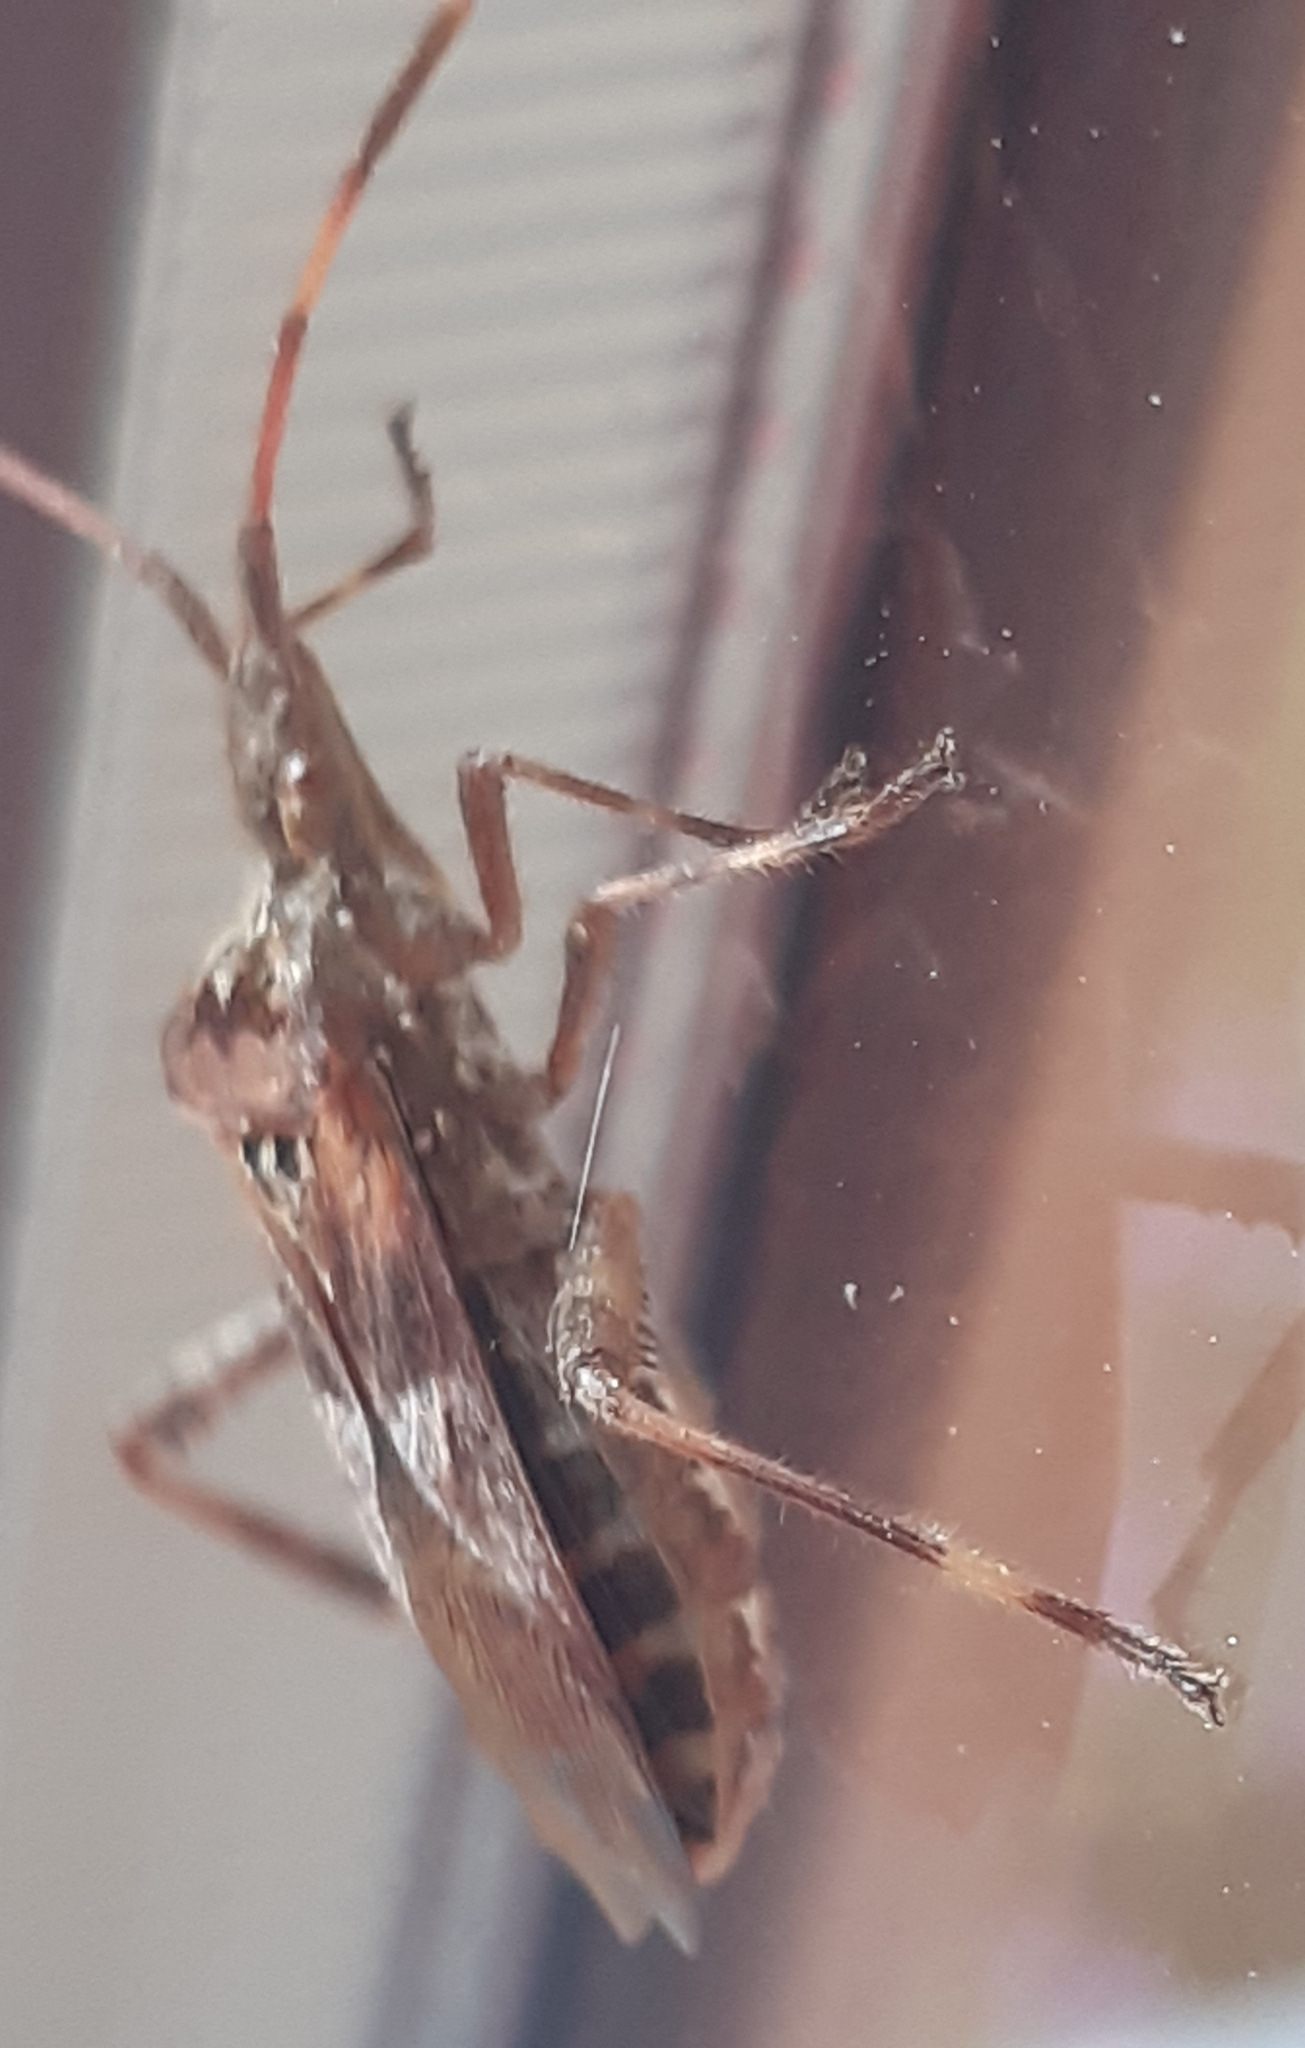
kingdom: Animalia
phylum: Arthropoda
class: Insecta
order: Hemiptera
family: Coreidae
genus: Leptoglossus
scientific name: Leptoglossus occidentalis
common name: Western conifer-seed bug
